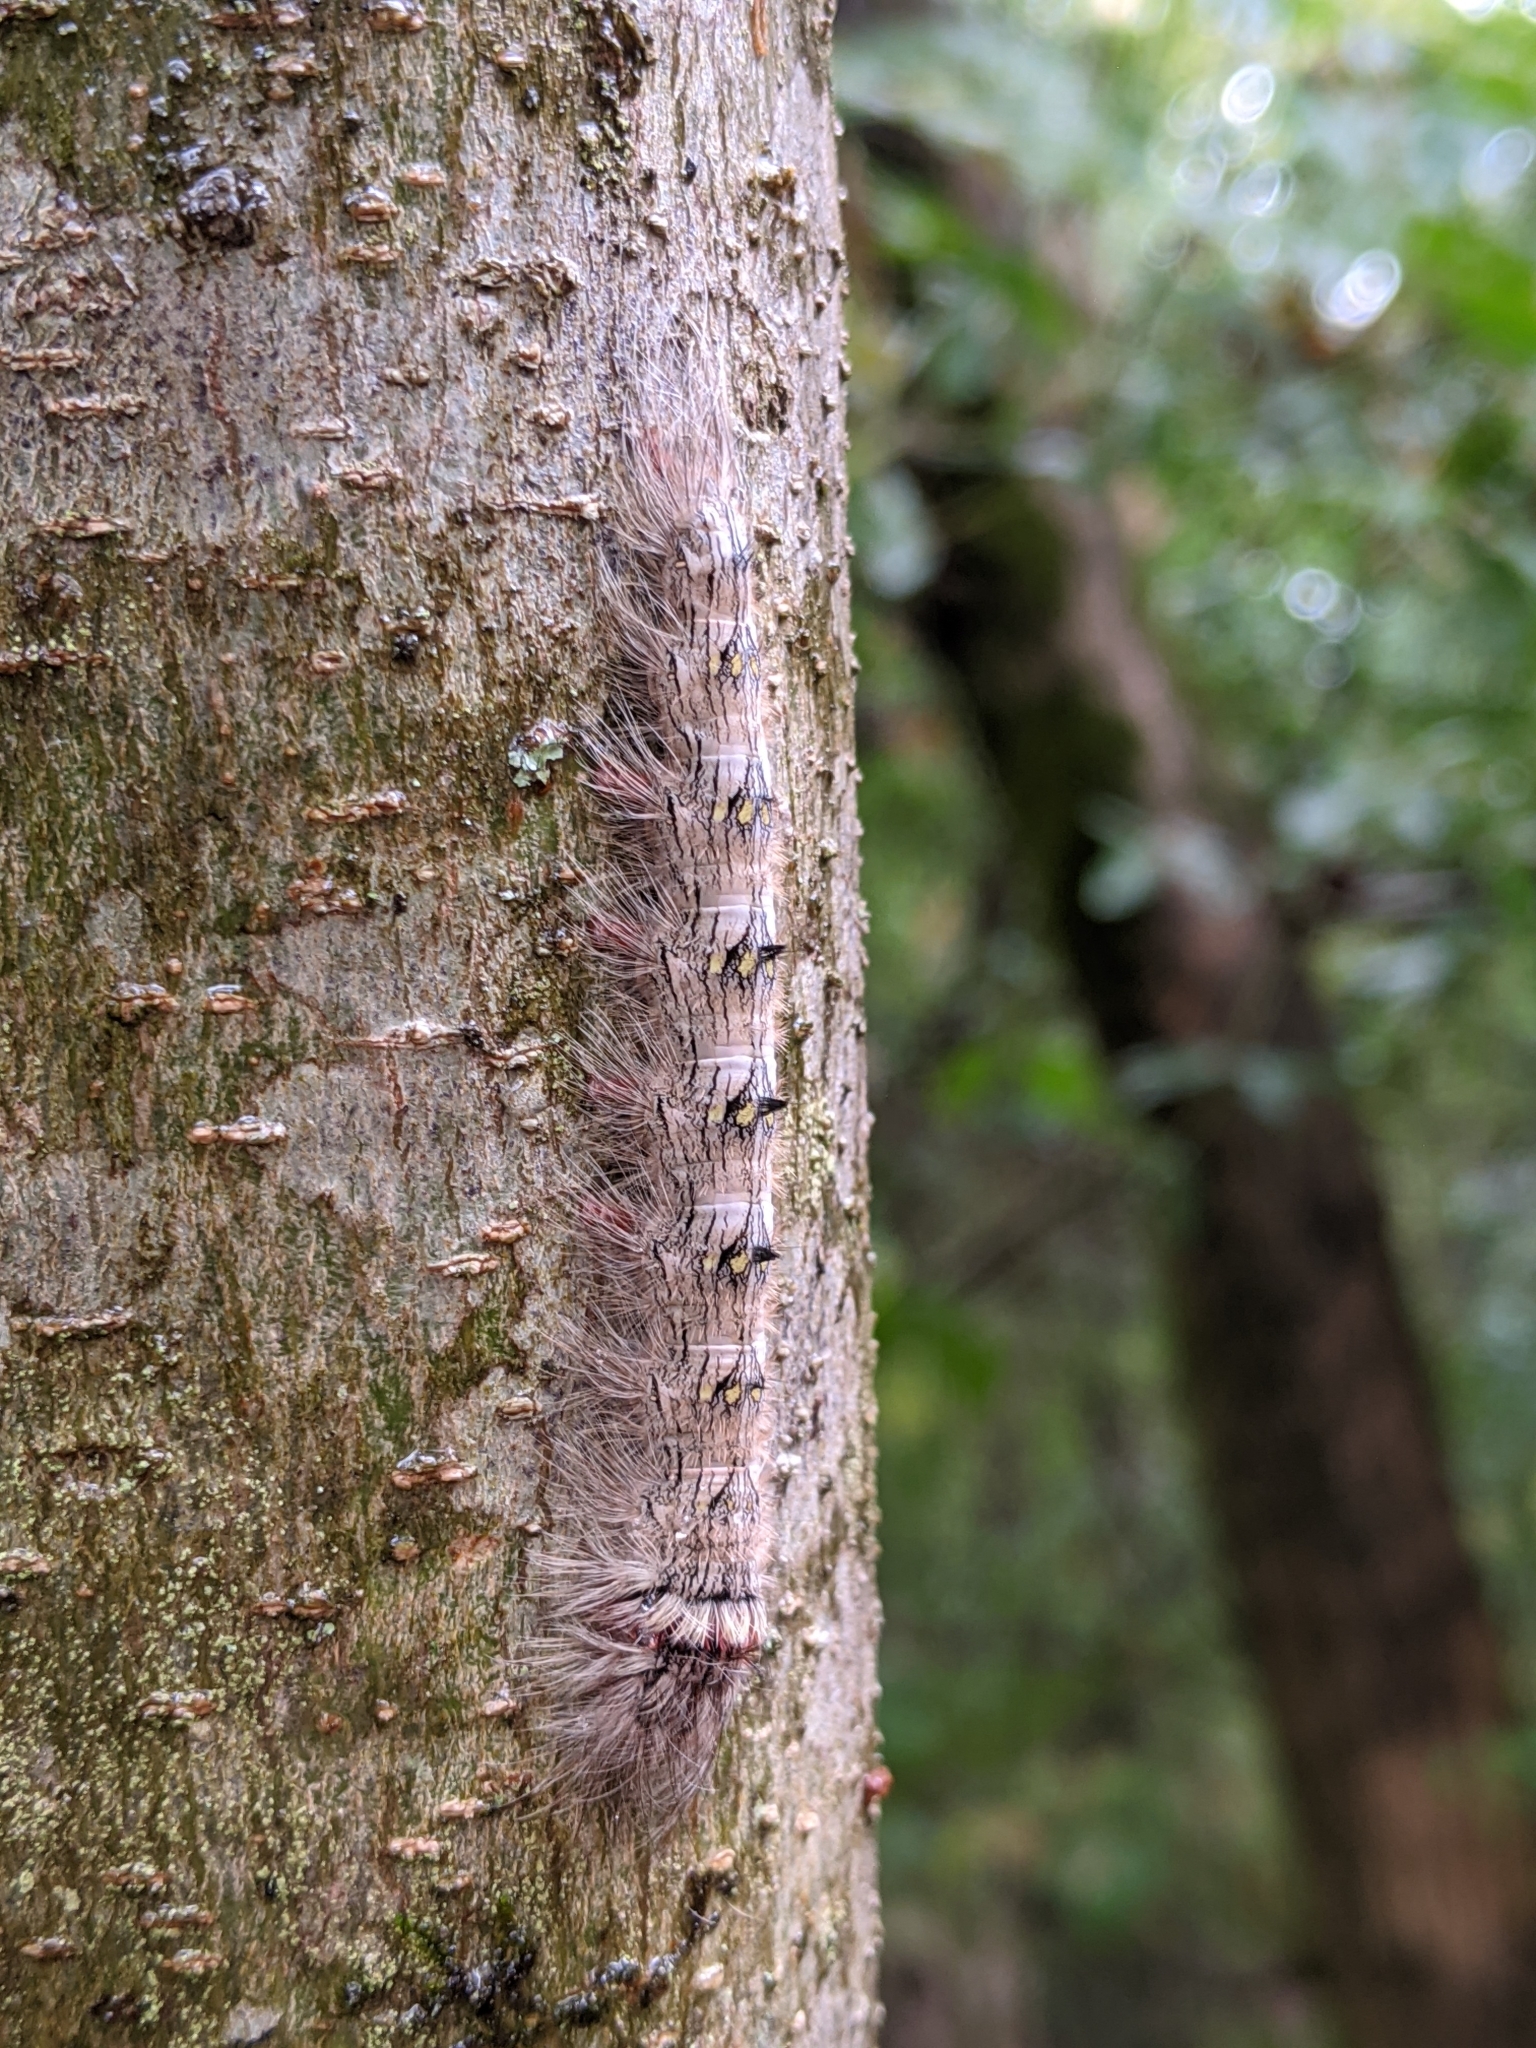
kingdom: Animalia
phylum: Arthropoda
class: Insecta
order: Lepidoptera
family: Apatelodidae
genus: Olceclostera
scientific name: Olceclostera angelica
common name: Angel moth
